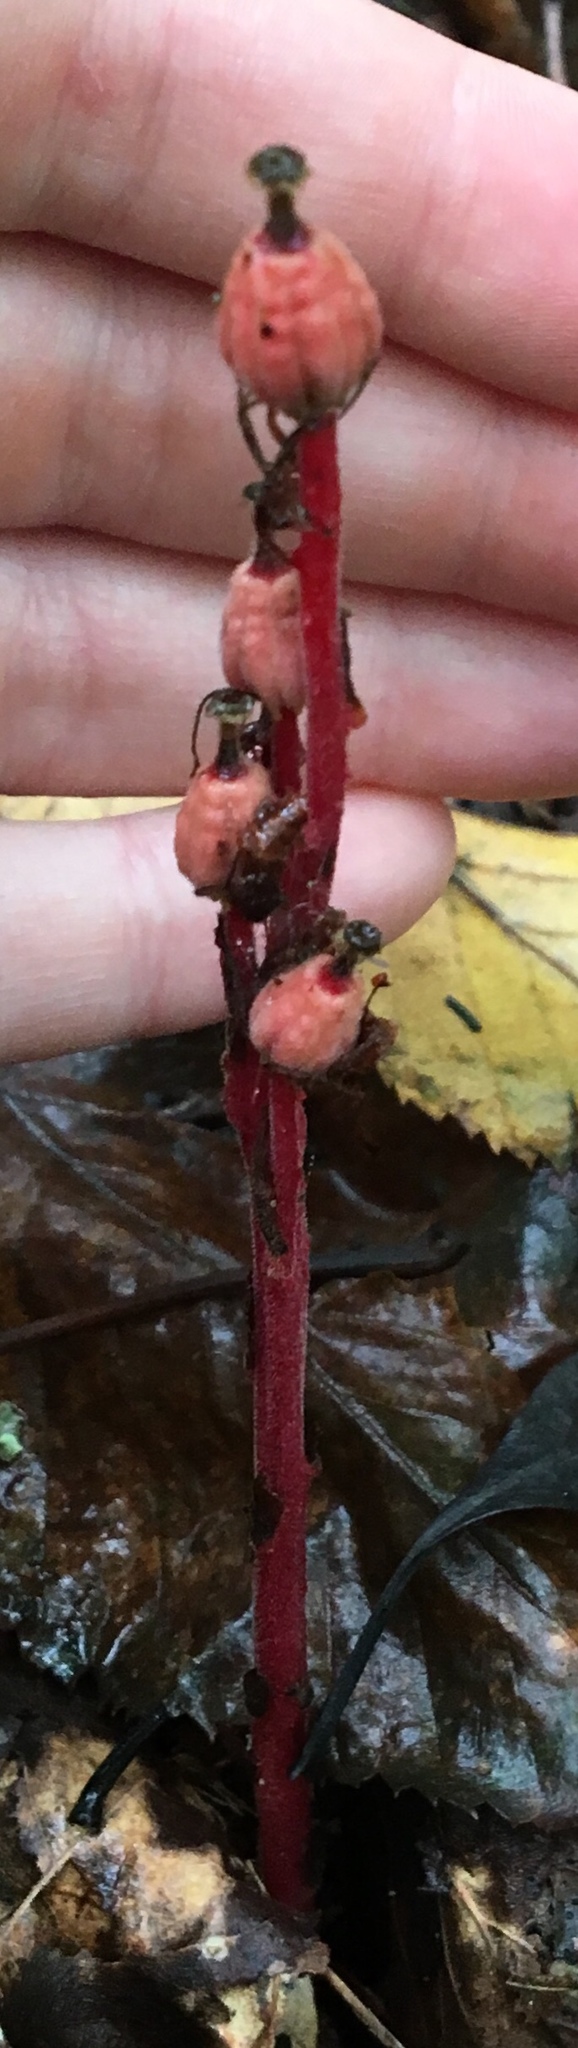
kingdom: Plantae
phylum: Tracheophyta
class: Magnoliopsida
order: Ericales
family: Ericaceae
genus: Hypopitys
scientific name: Hypopitys monotropa
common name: Yellow bird's-nest
